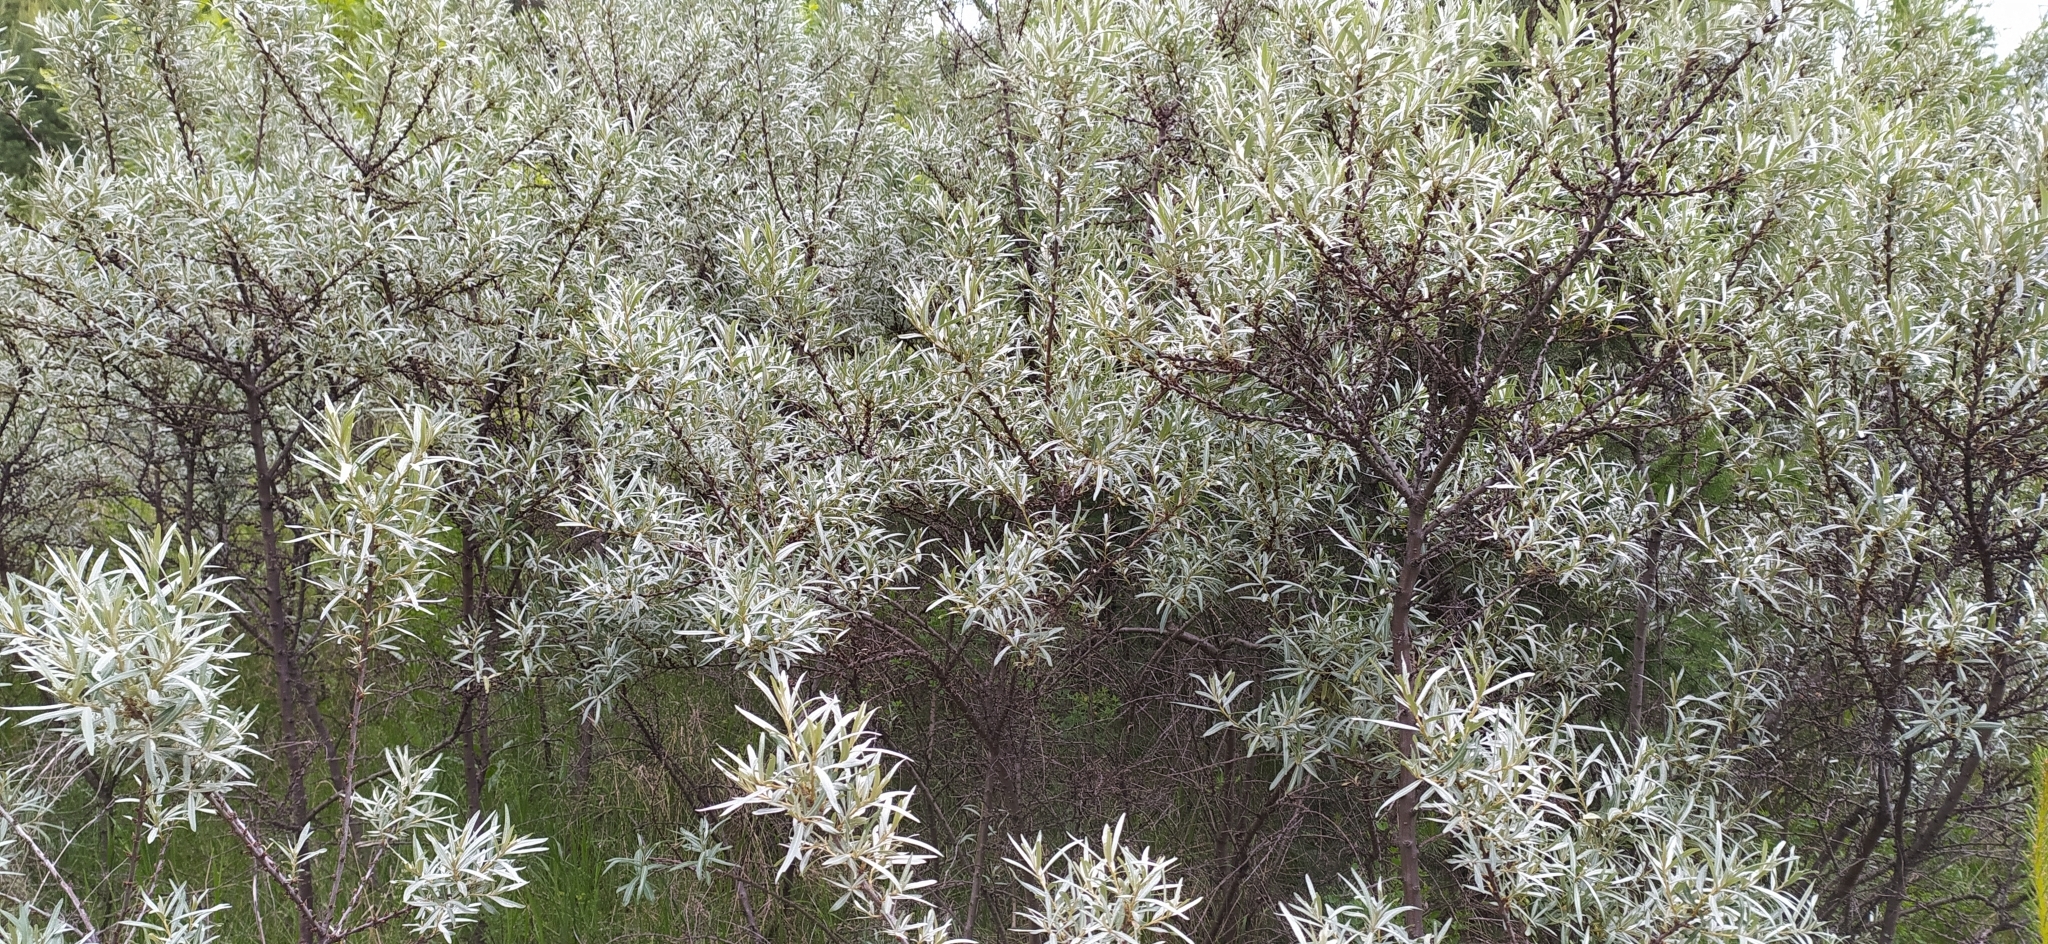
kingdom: Plantae
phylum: Tracheophyta
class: Magnoliopsida
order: Rosales
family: Elaeagnaceae
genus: Hippophae
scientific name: Hippophae rhamnoides
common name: Sea-buckthorn
